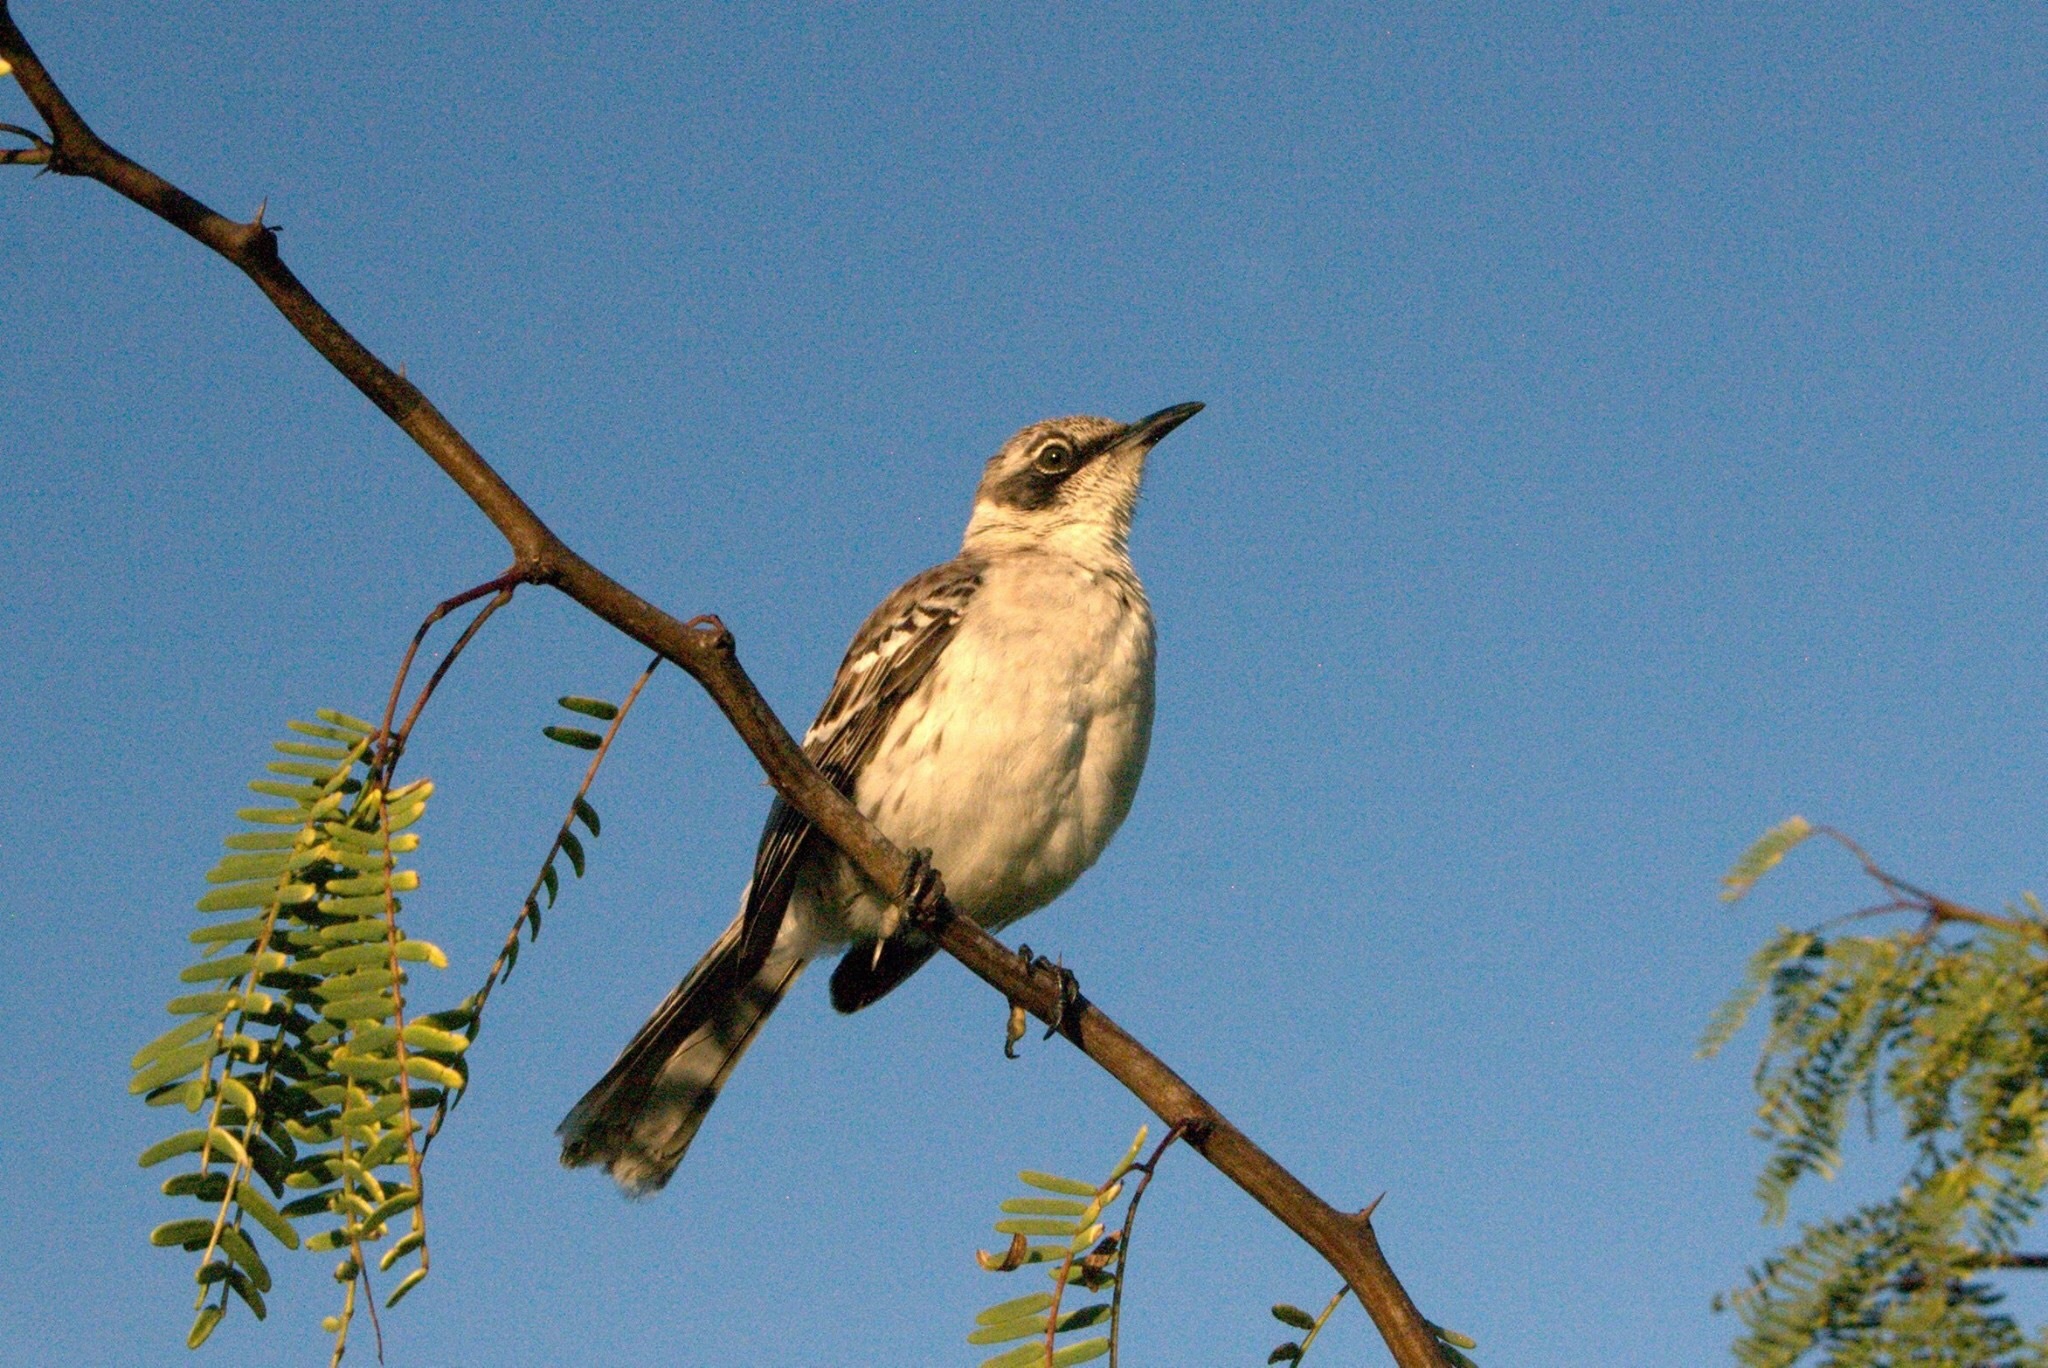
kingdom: Animalia
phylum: Chordata
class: Aves
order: Passeriformes
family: Mimidae
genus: Mimus
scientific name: Mimus parvulus
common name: Galapagos mockingbird
